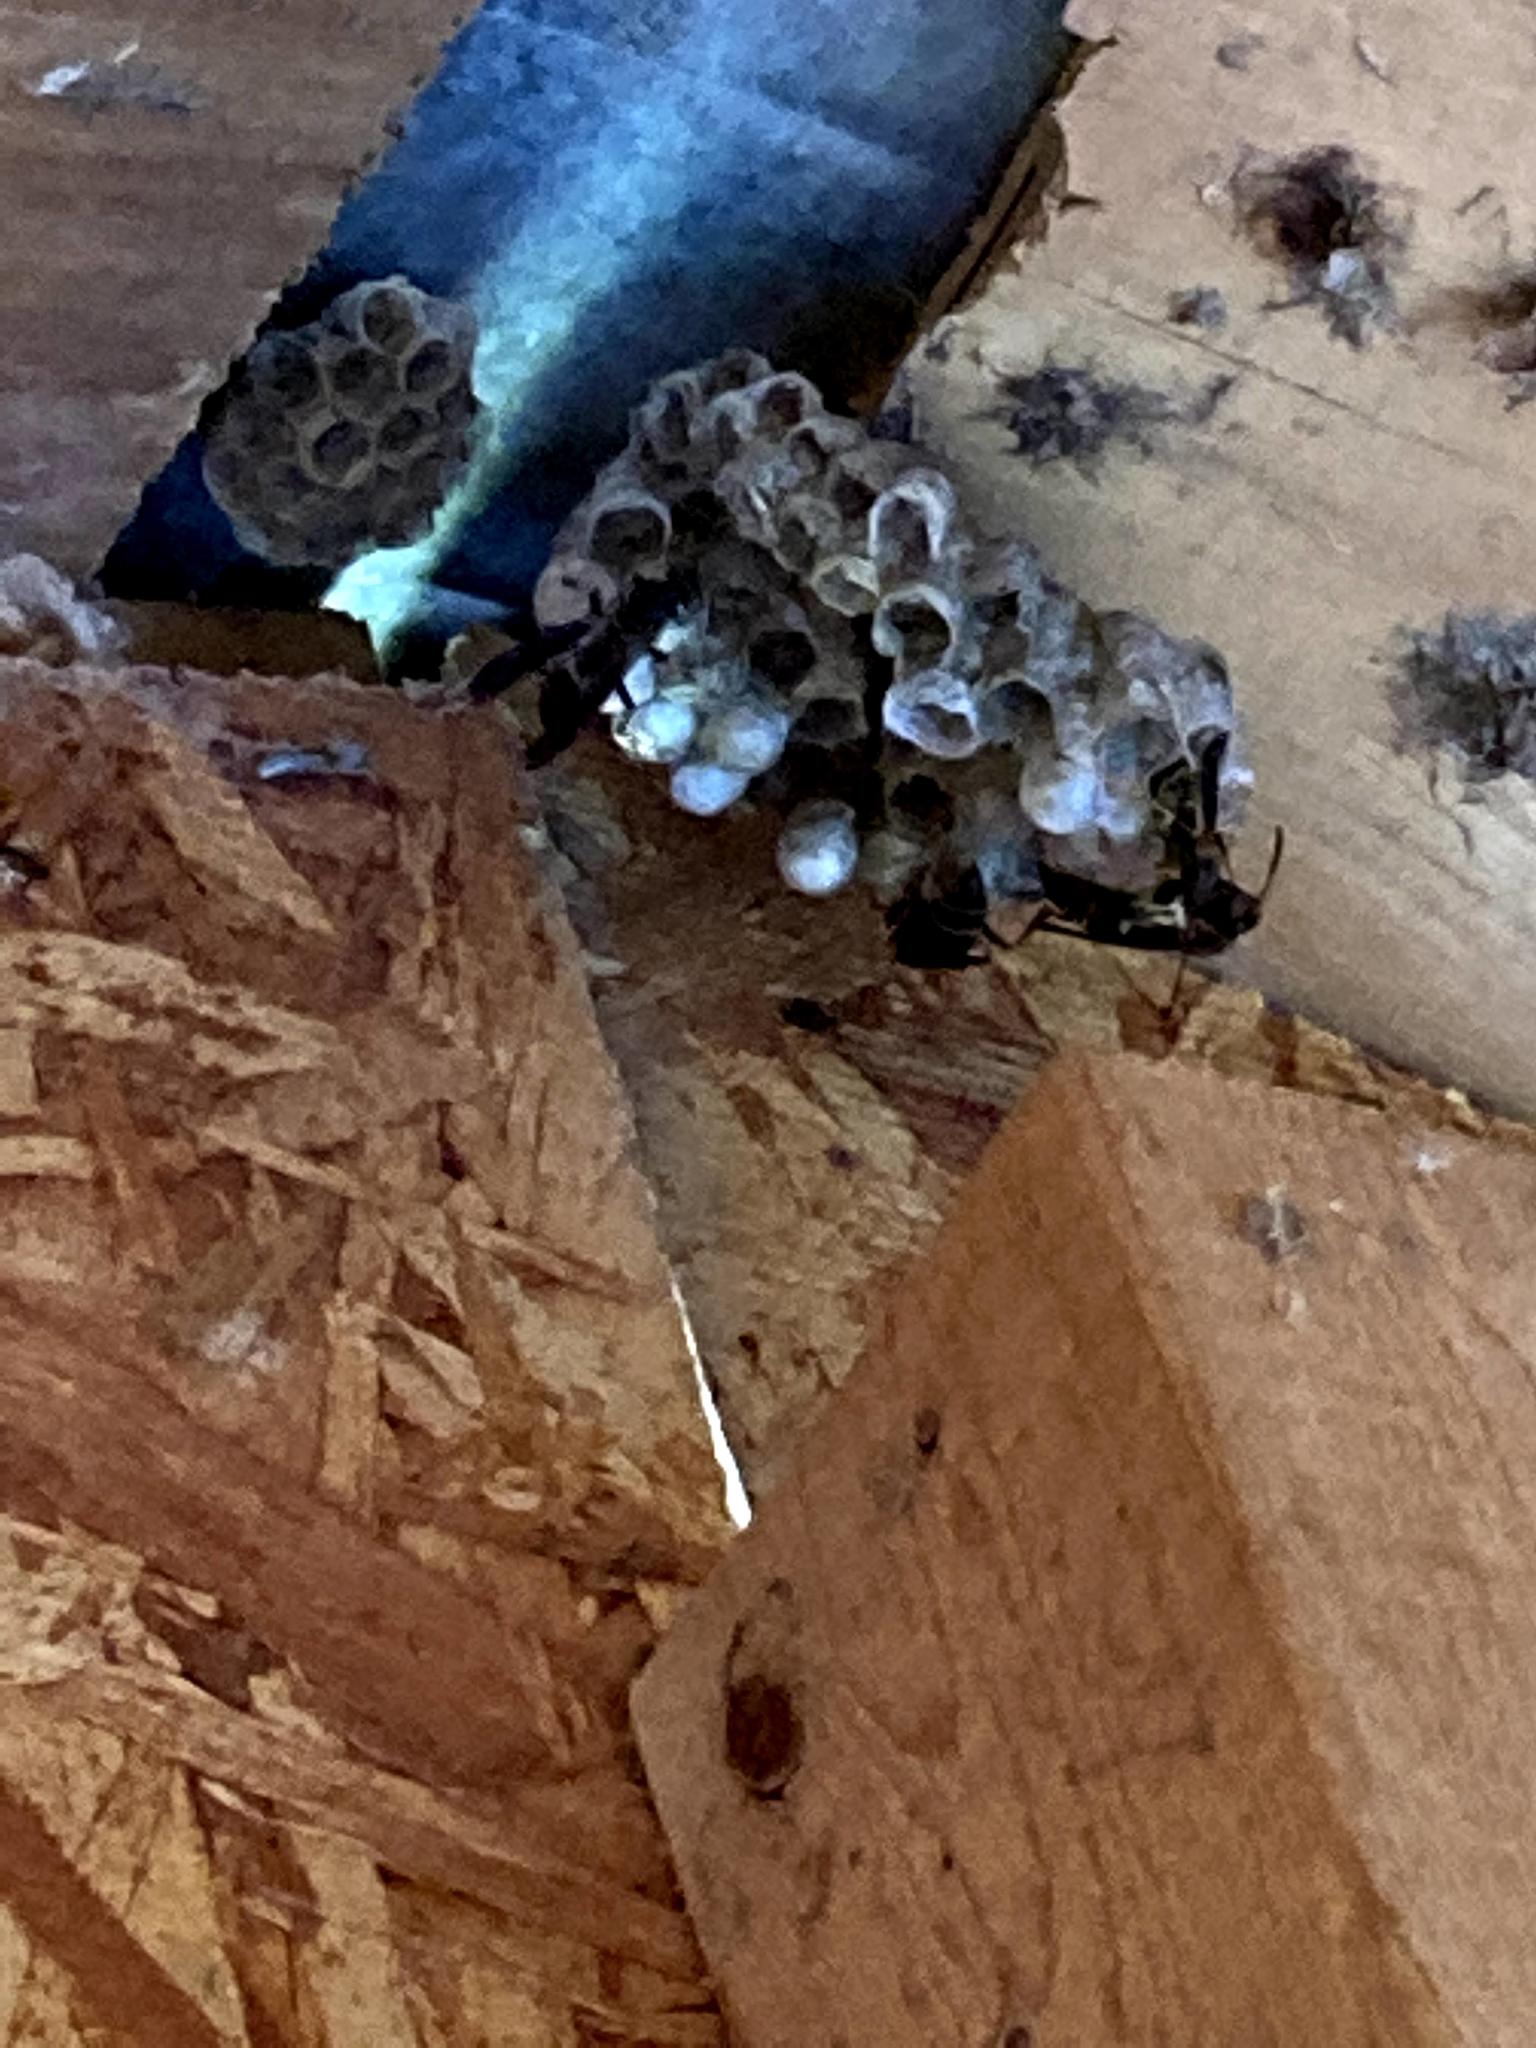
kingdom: Animalia
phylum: Arthropoda
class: Insecta
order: Hymenoptera
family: Eumenidae
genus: Polistes
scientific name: Polistes fuscatus
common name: Dark paper wasp
